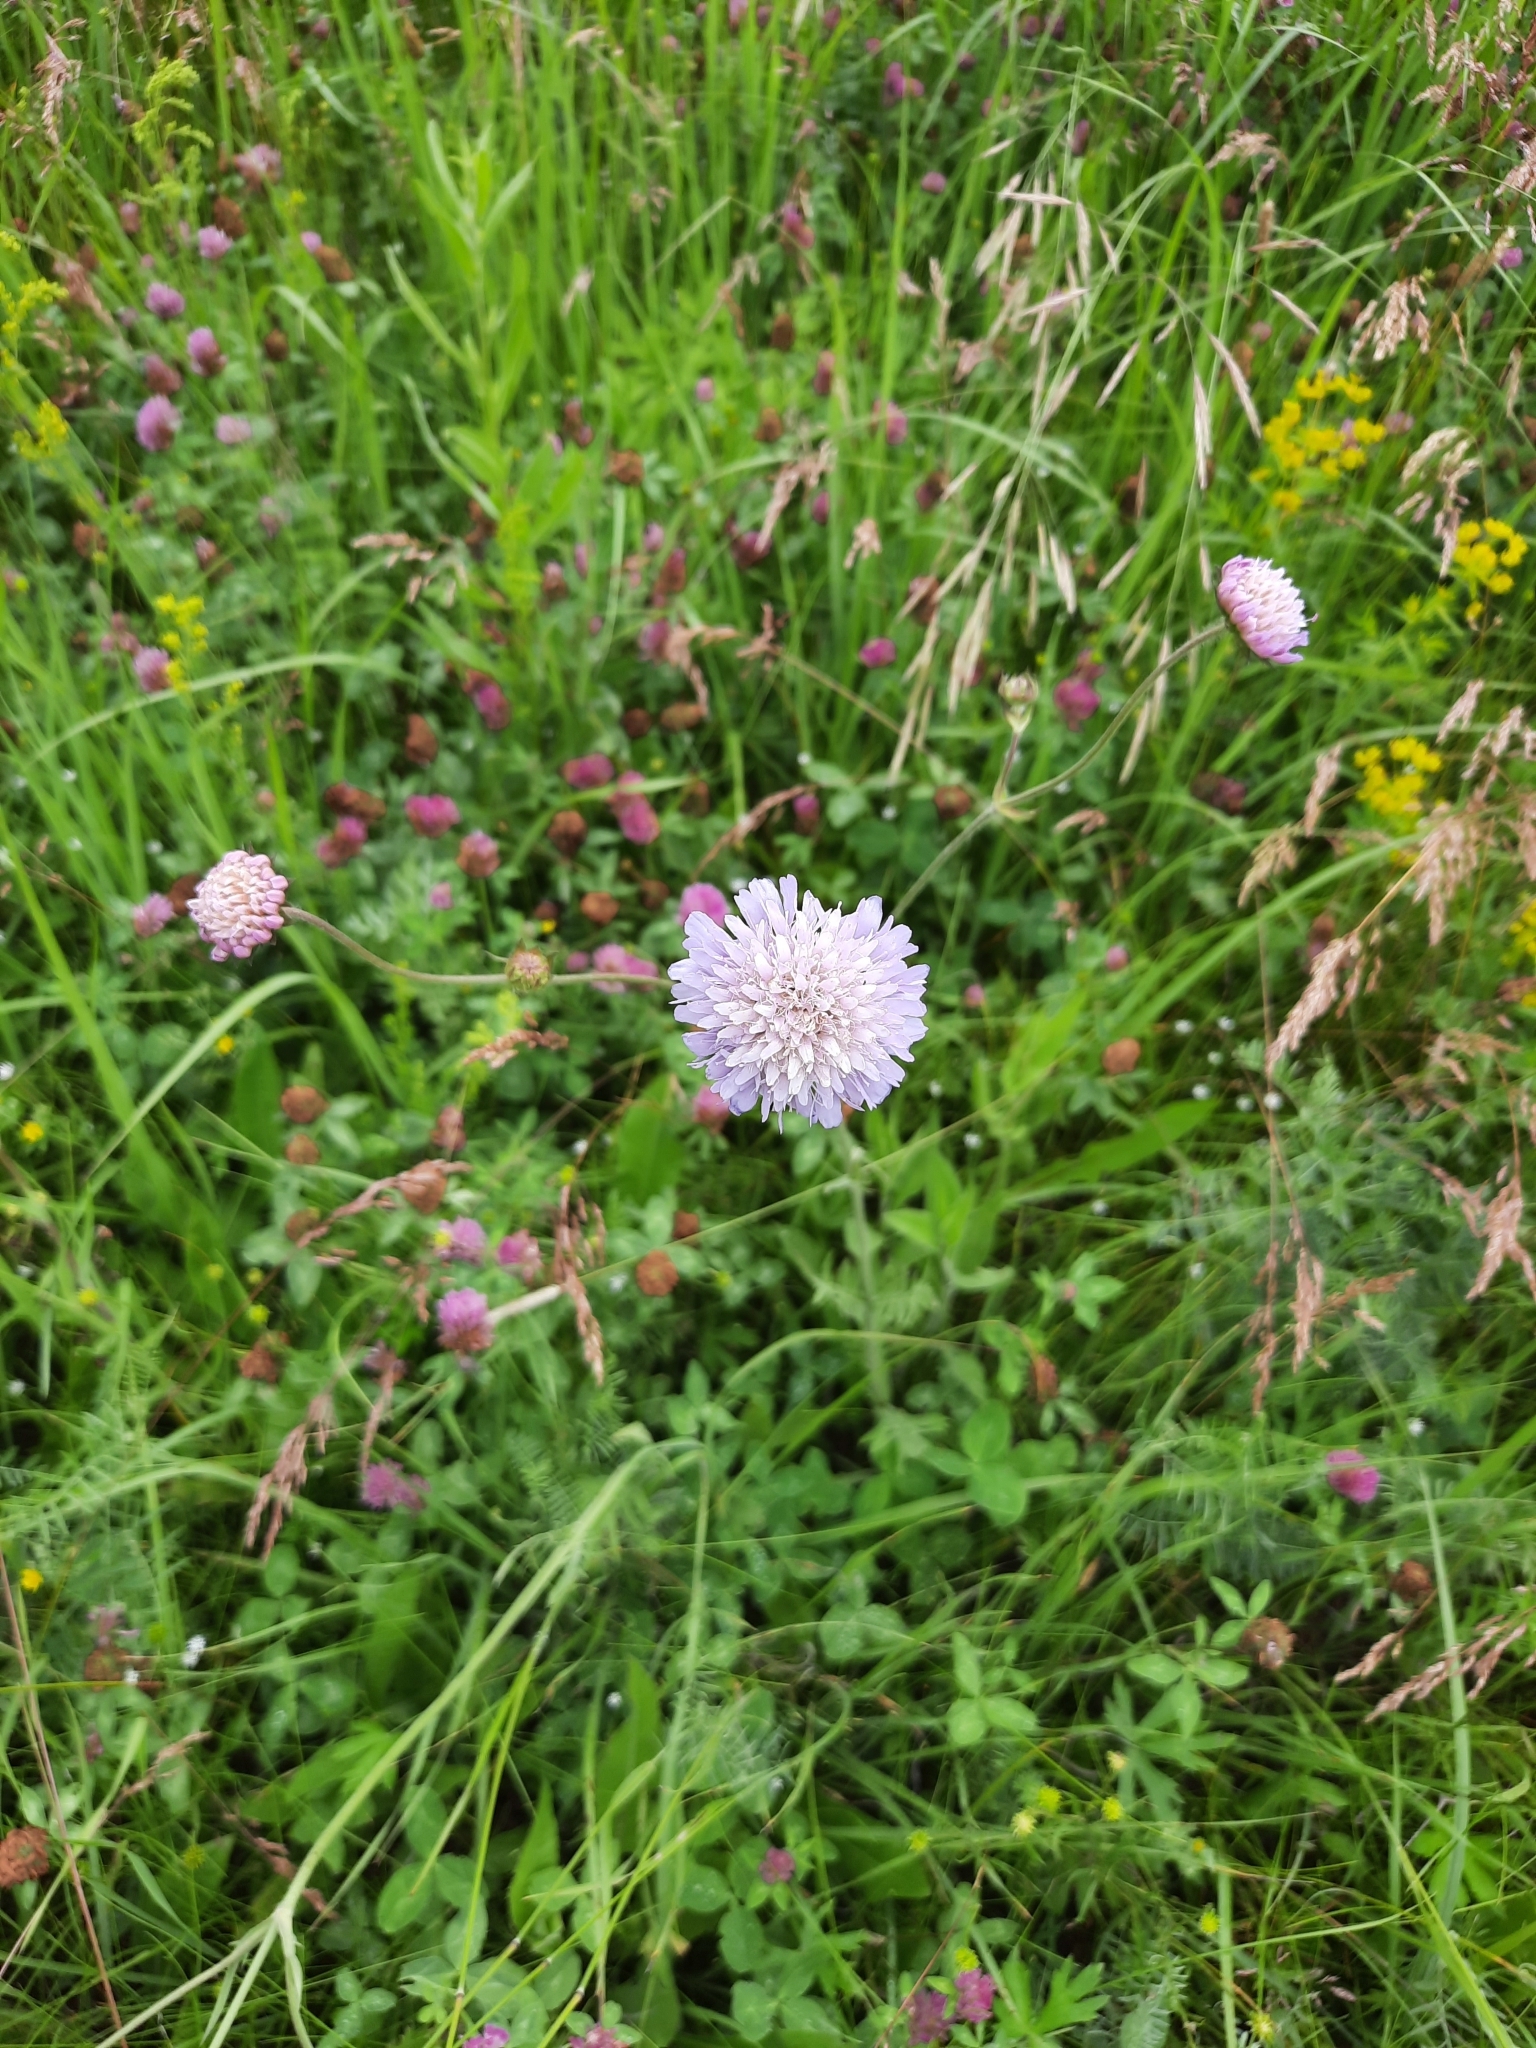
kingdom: Plantae
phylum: Tracheophyta
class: Magnoliopsida
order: Dipsacales
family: Caprifoliaceae
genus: Knautia
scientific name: Knautia arvensis
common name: Field scabiosa
